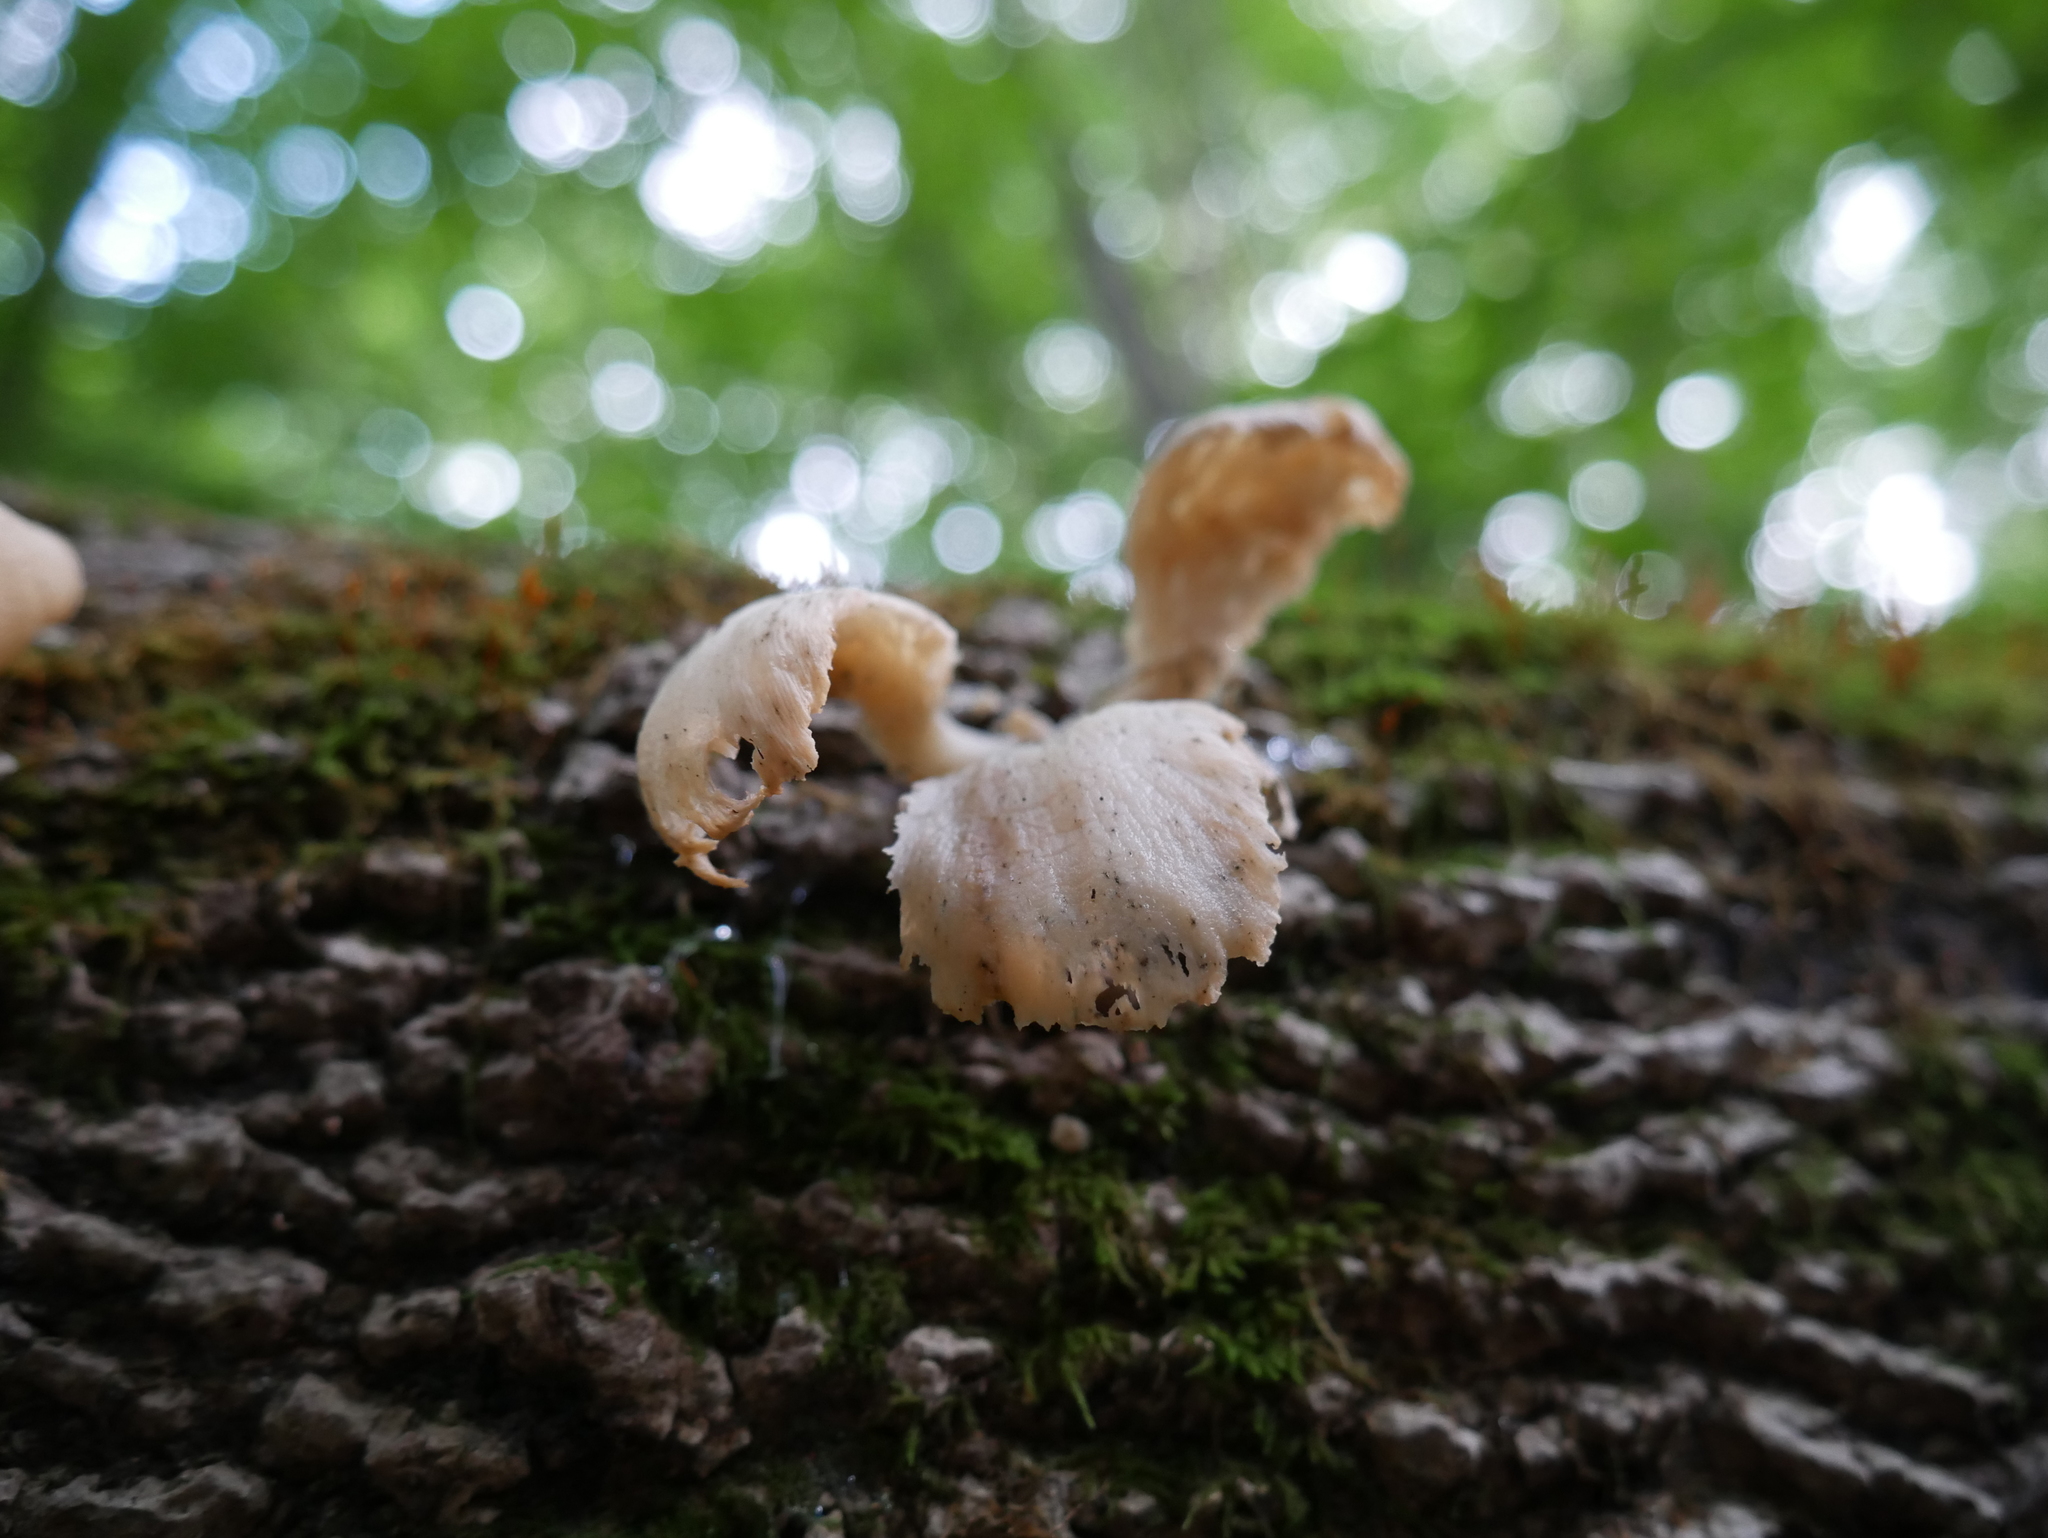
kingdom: Fungi
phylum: Basidiomycota
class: Agaricomycetes
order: Agaricales
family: Pleurotaceae
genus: Pleurotus
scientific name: Pleurotus pulmonarius
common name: Pale oyster
